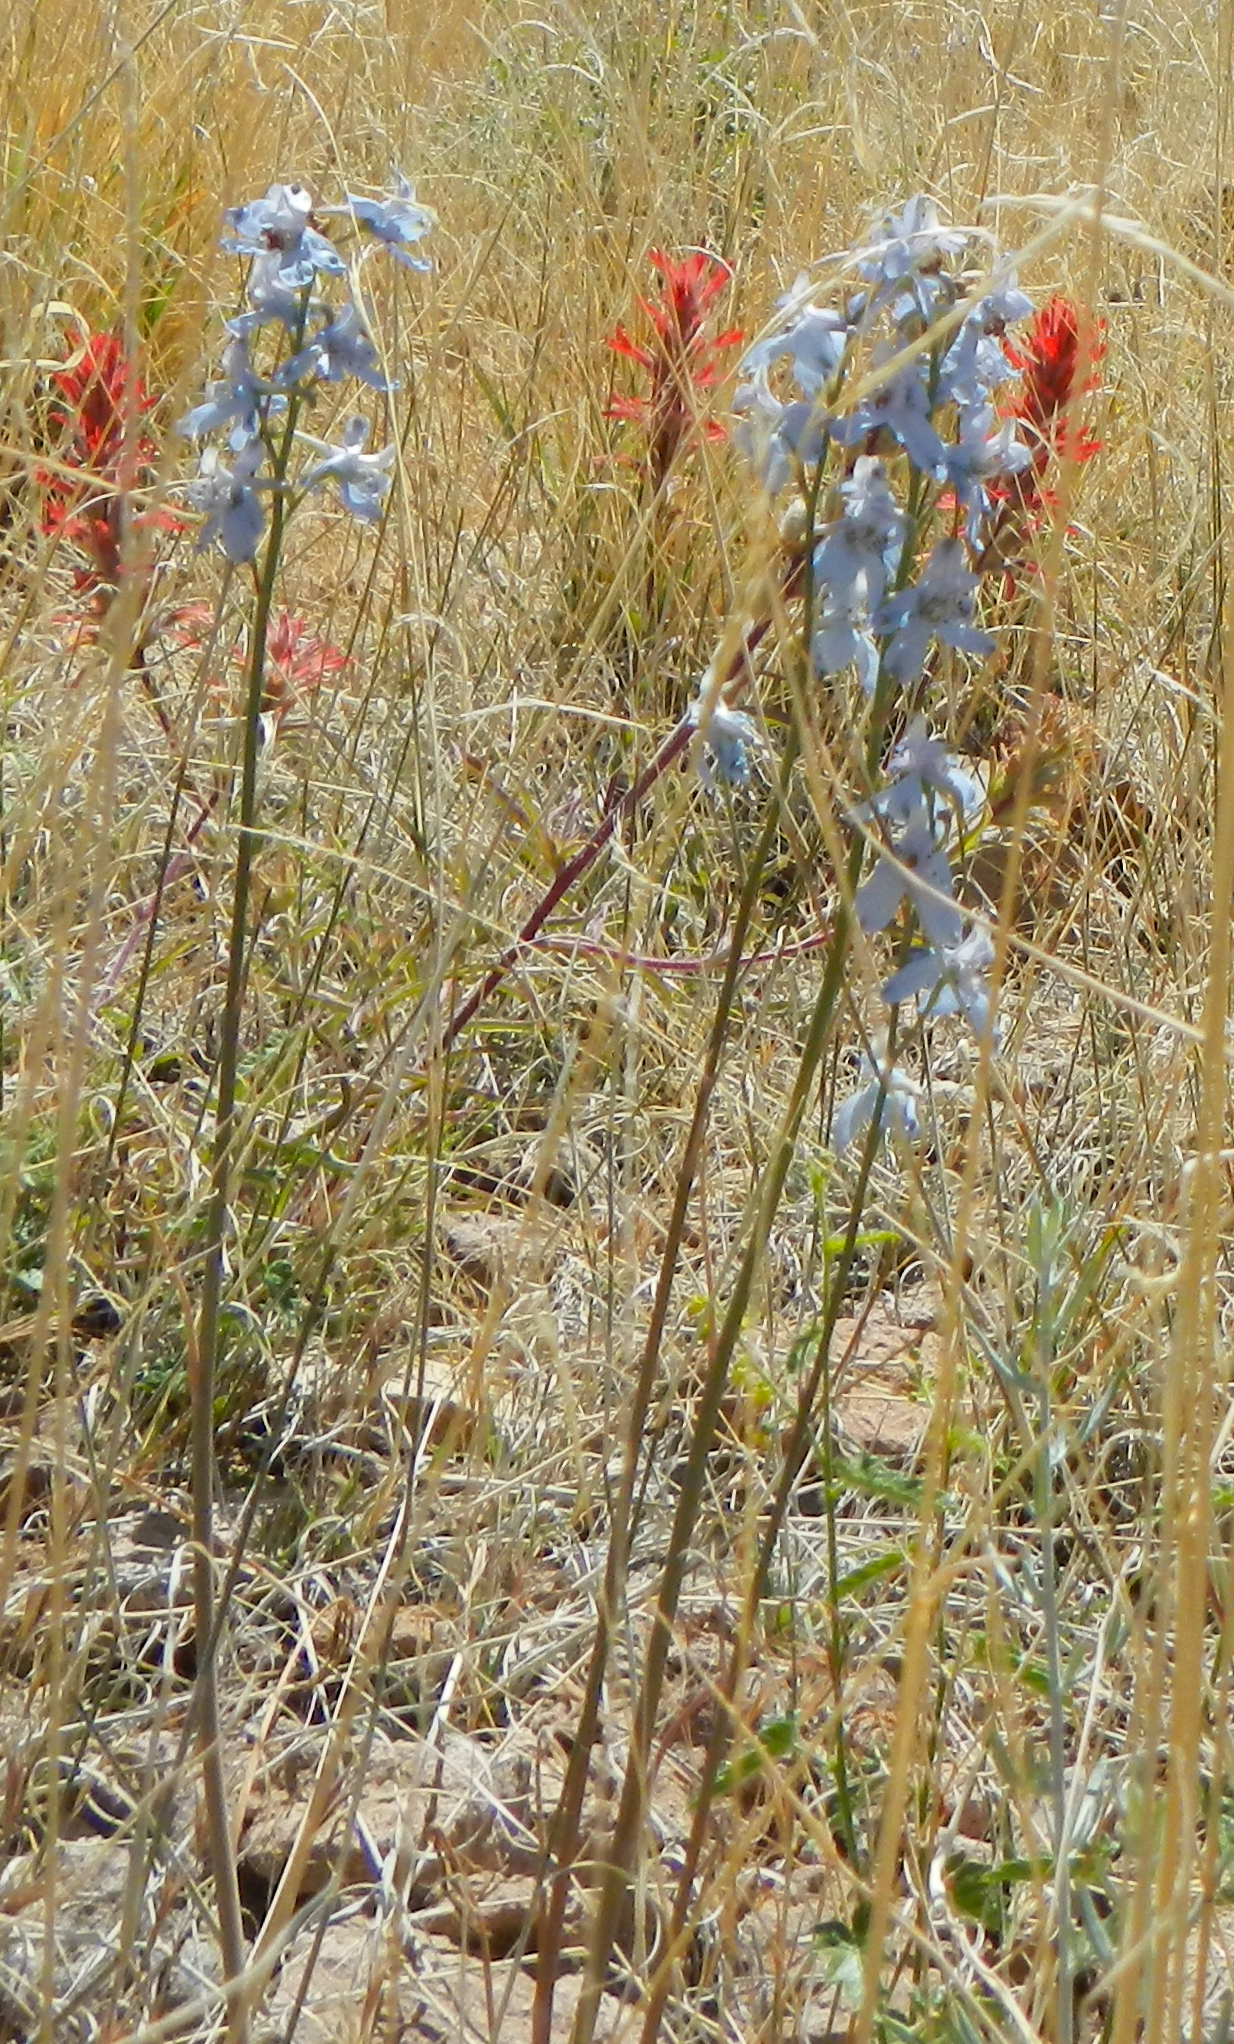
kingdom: Plantae
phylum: Tracheophyta
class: Magnoliopsida
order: Ranunculales
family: Ranunculaceae
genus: Delphinium
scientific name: Delphinium parishii
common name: Apache larkspur
